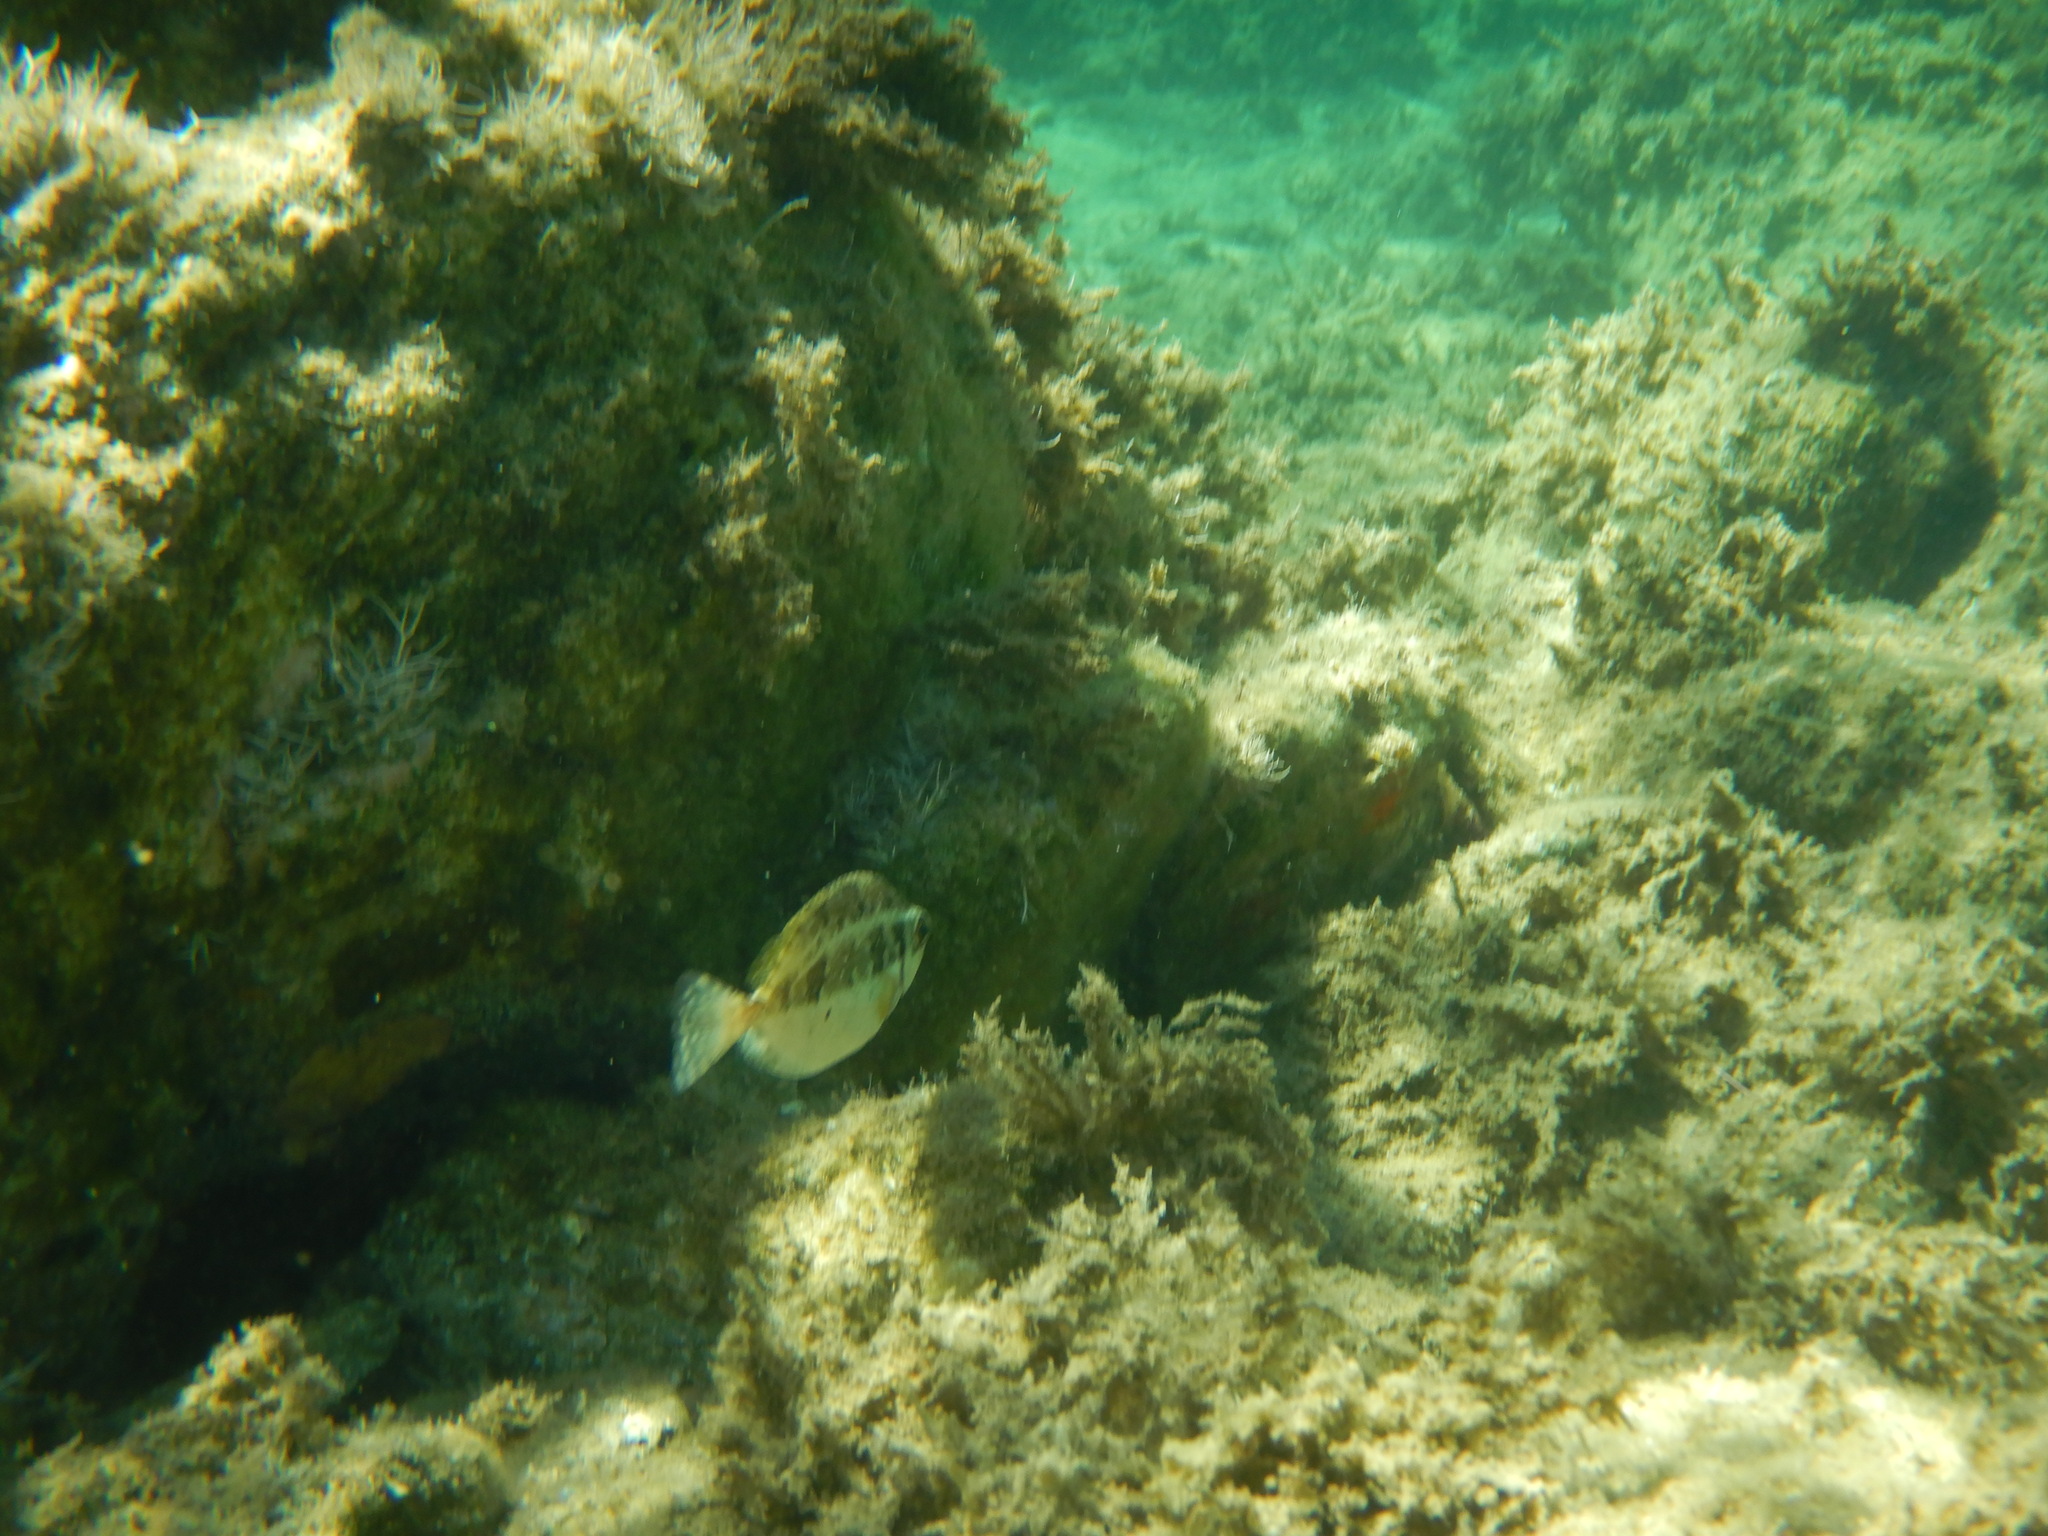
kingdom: Animalia
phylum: Chordata
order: Perciformes
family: Siganidae
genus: Siganus
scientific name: Siganus luridus
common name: Dusky spinefoot
